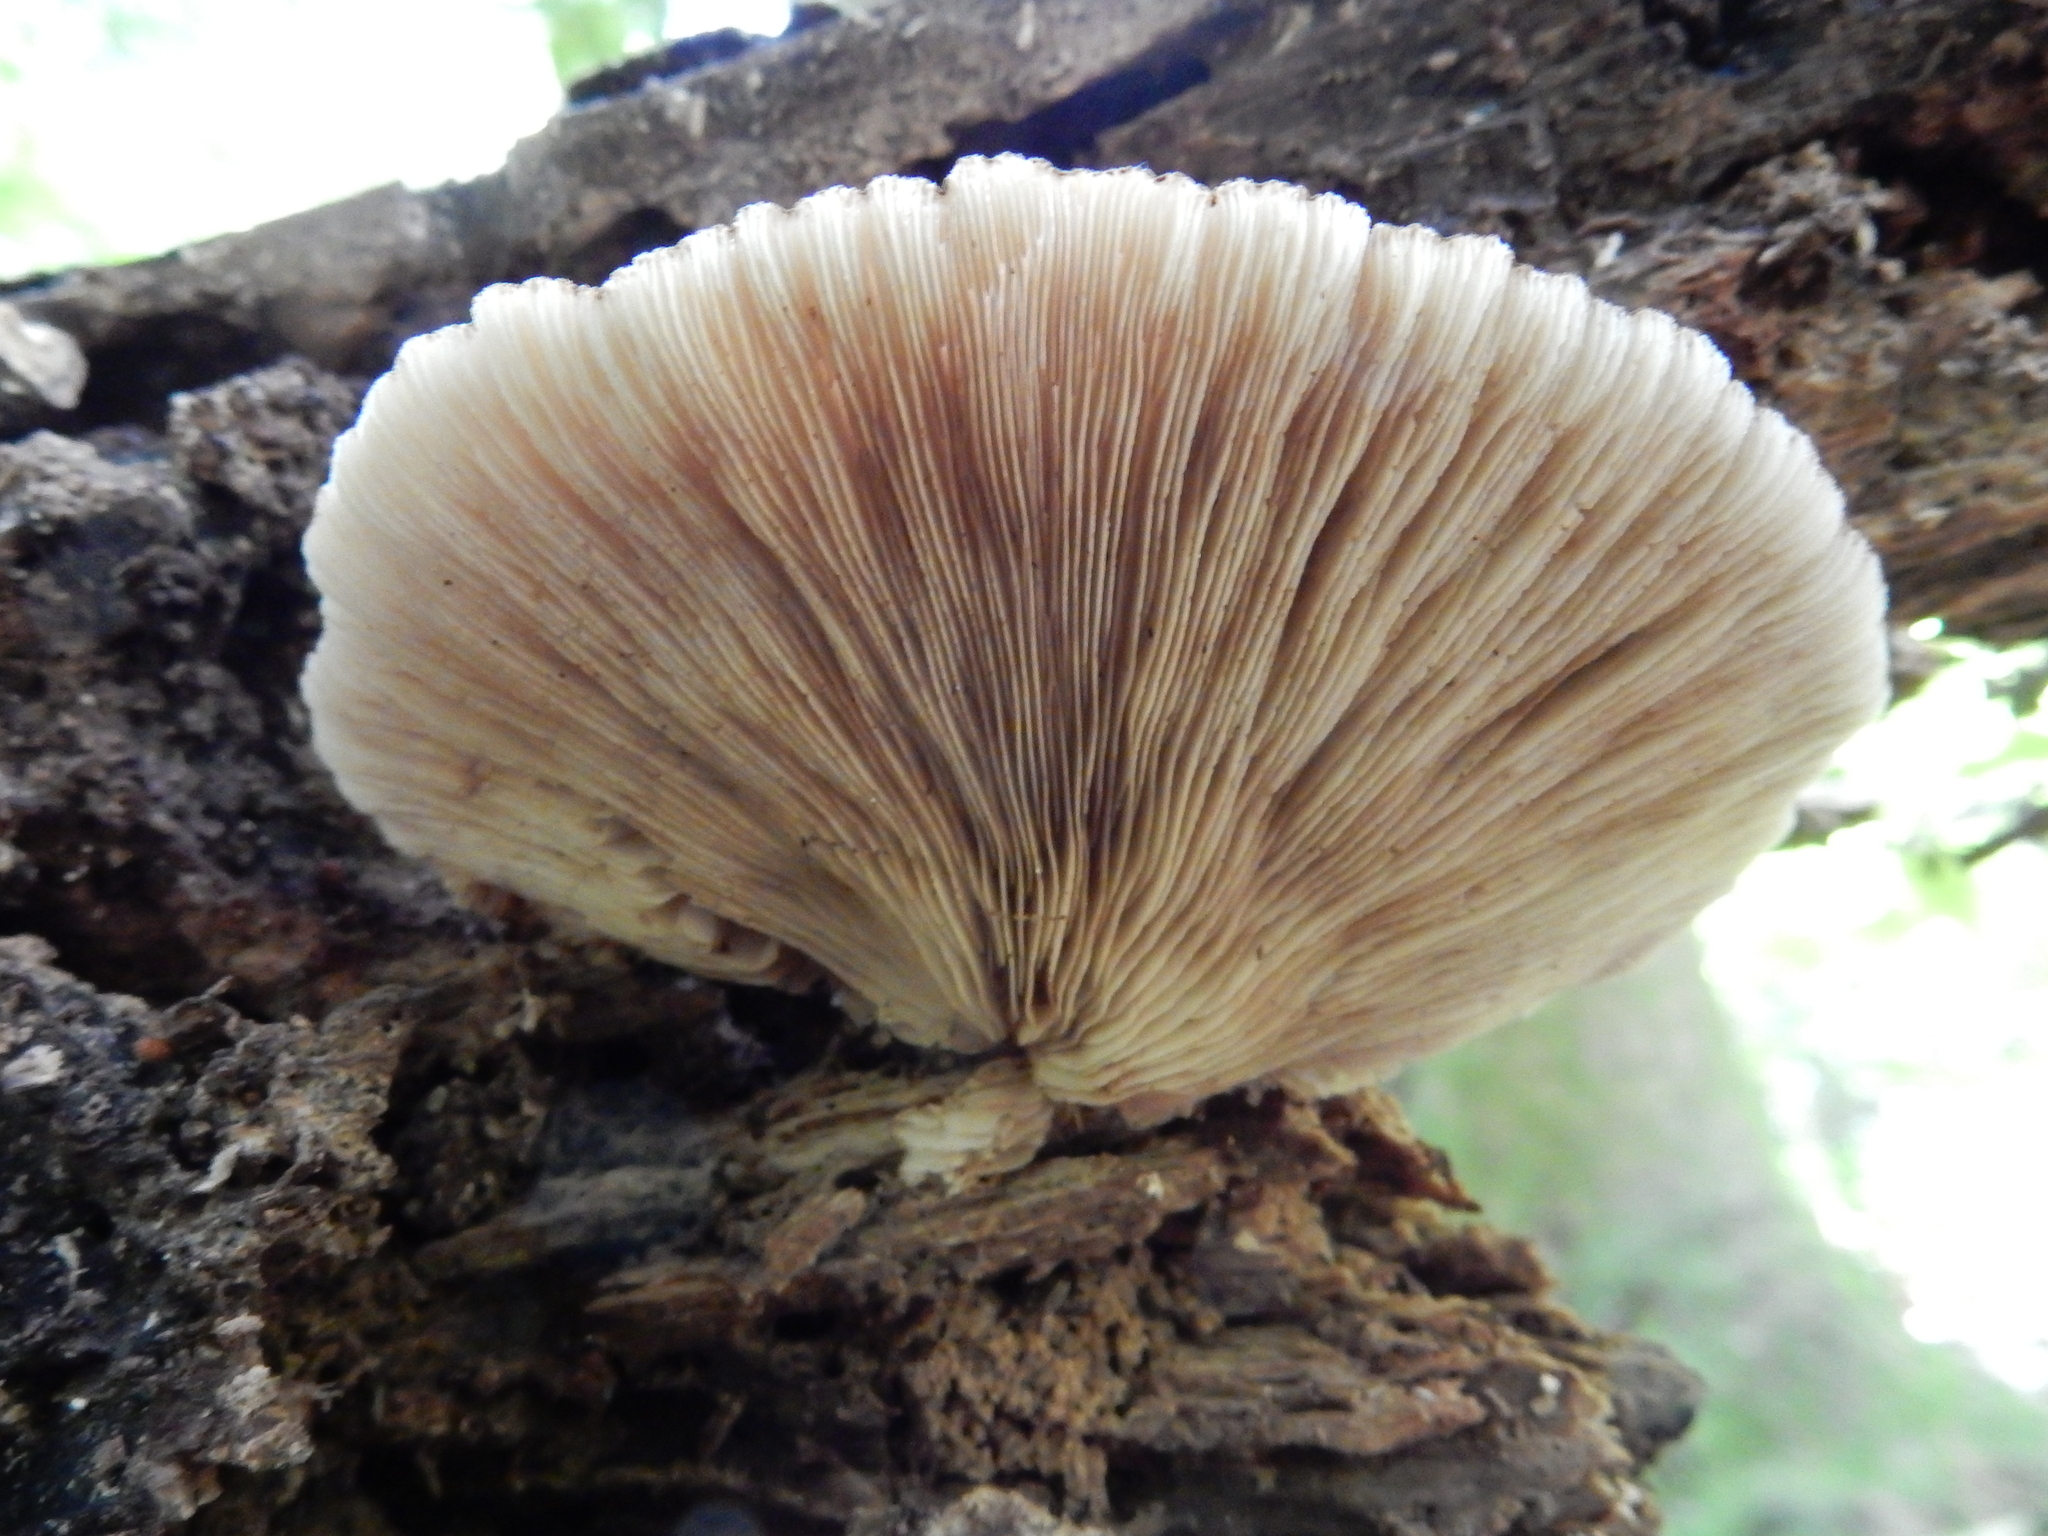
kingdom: Fungi
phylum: Basidiomycota
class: Agaricomycetes
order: Agaricales
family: Crepidotaceae
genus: Crepidotus
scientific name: Crepidotus fuscovelutinus
